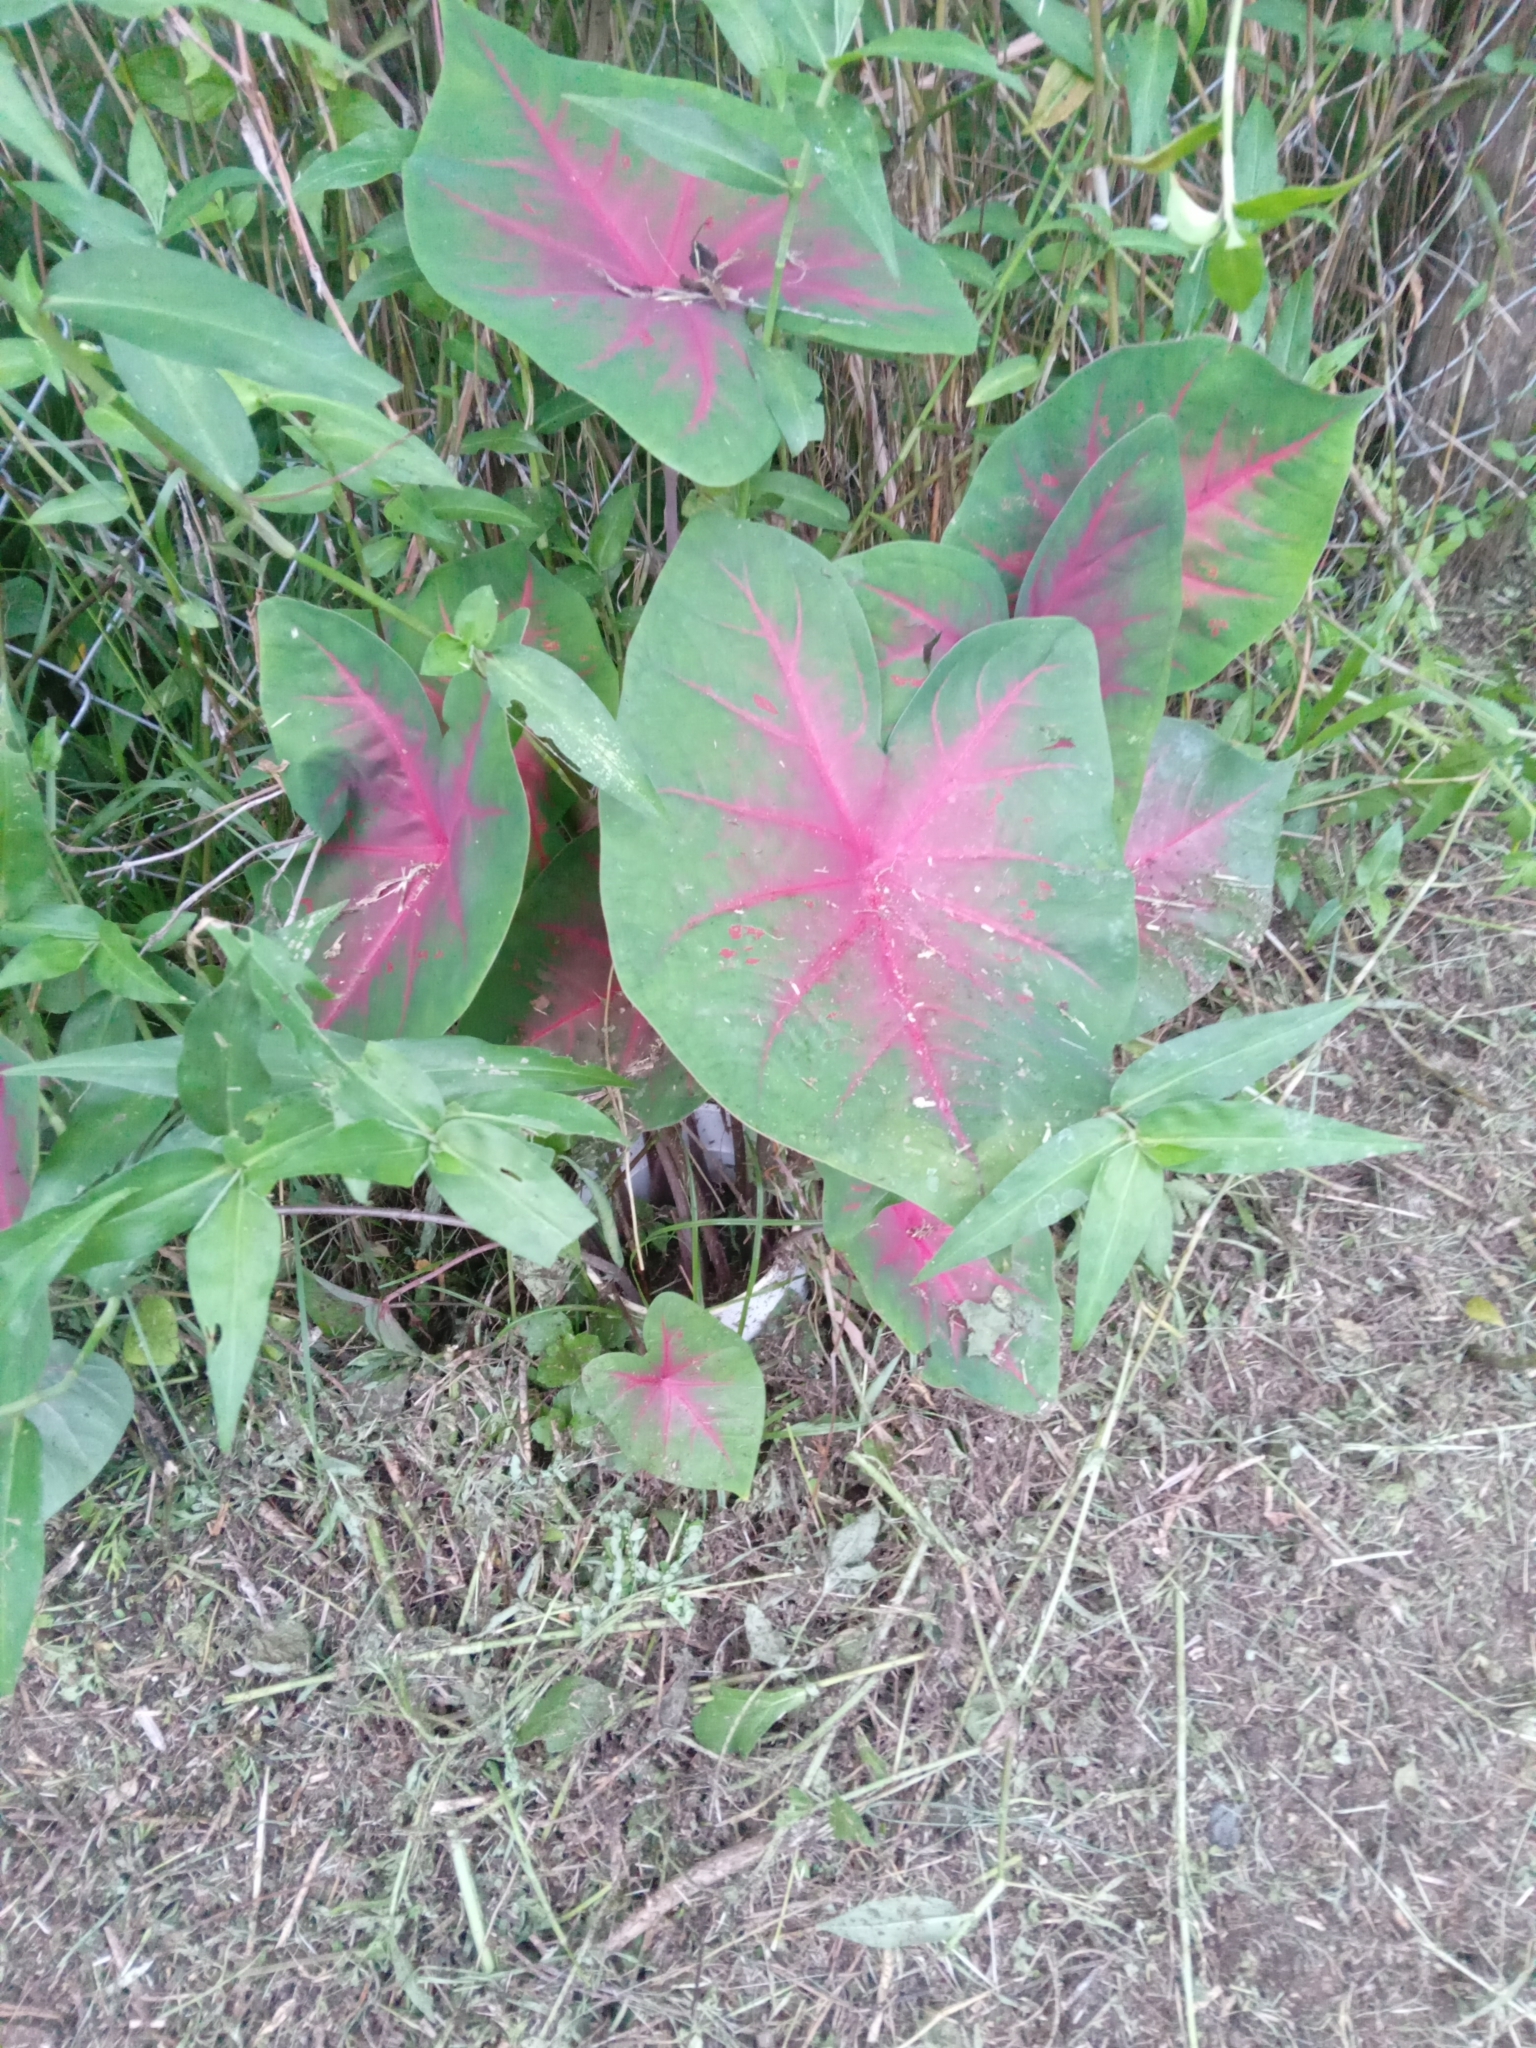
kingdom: Plantae
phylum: Tracheophyta
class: Liliopsida
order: Alismatales
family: Araceae
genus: Caladium
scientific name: Caladium bicolor
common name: Artist's pallet
